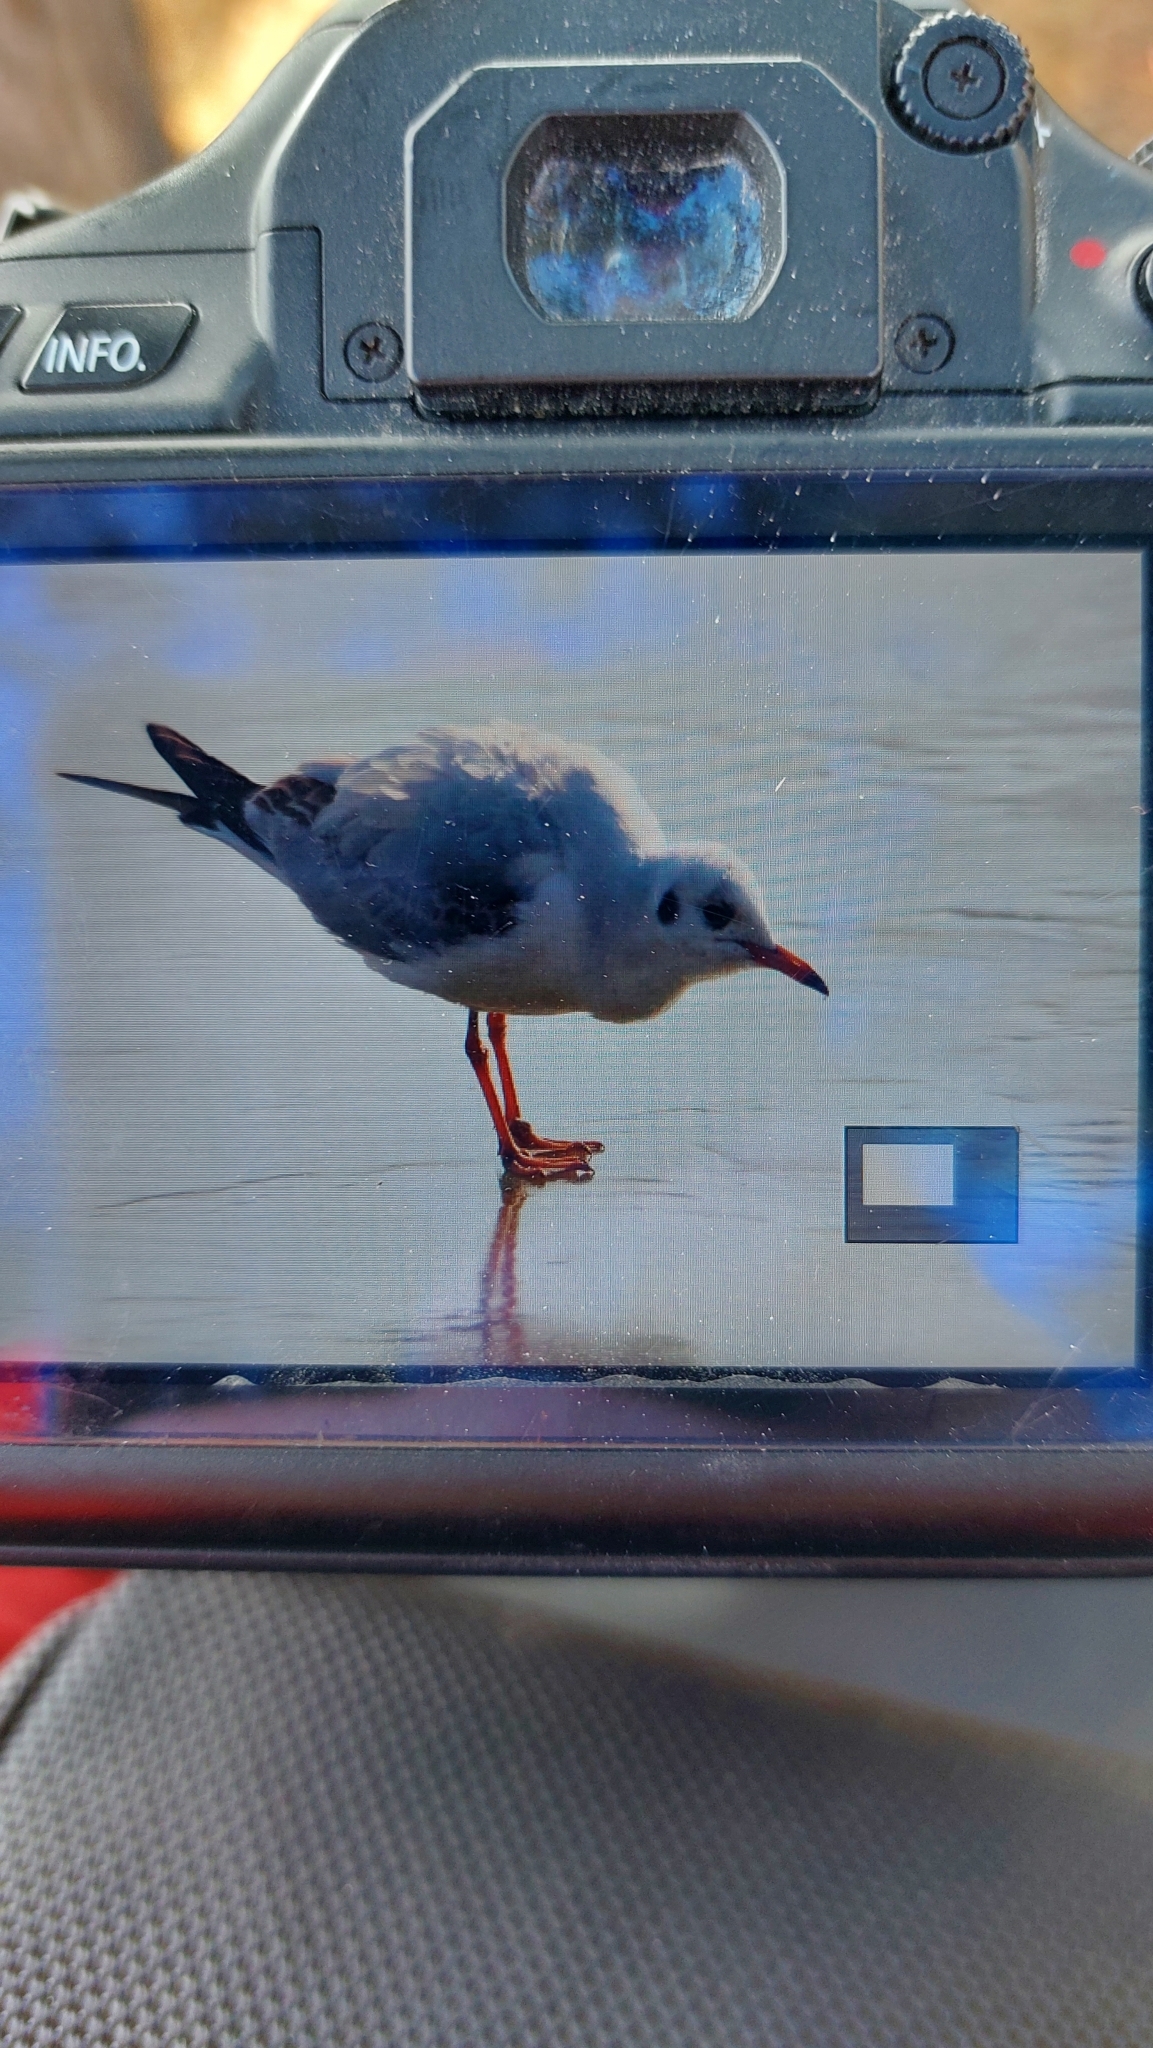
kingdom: Animalia
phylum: Chordata
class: Aves
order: Charadriiformes
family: Laridae
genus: Chroicocephalus
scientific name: Chroicocephalus ridibundus
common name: Black-headed gull
